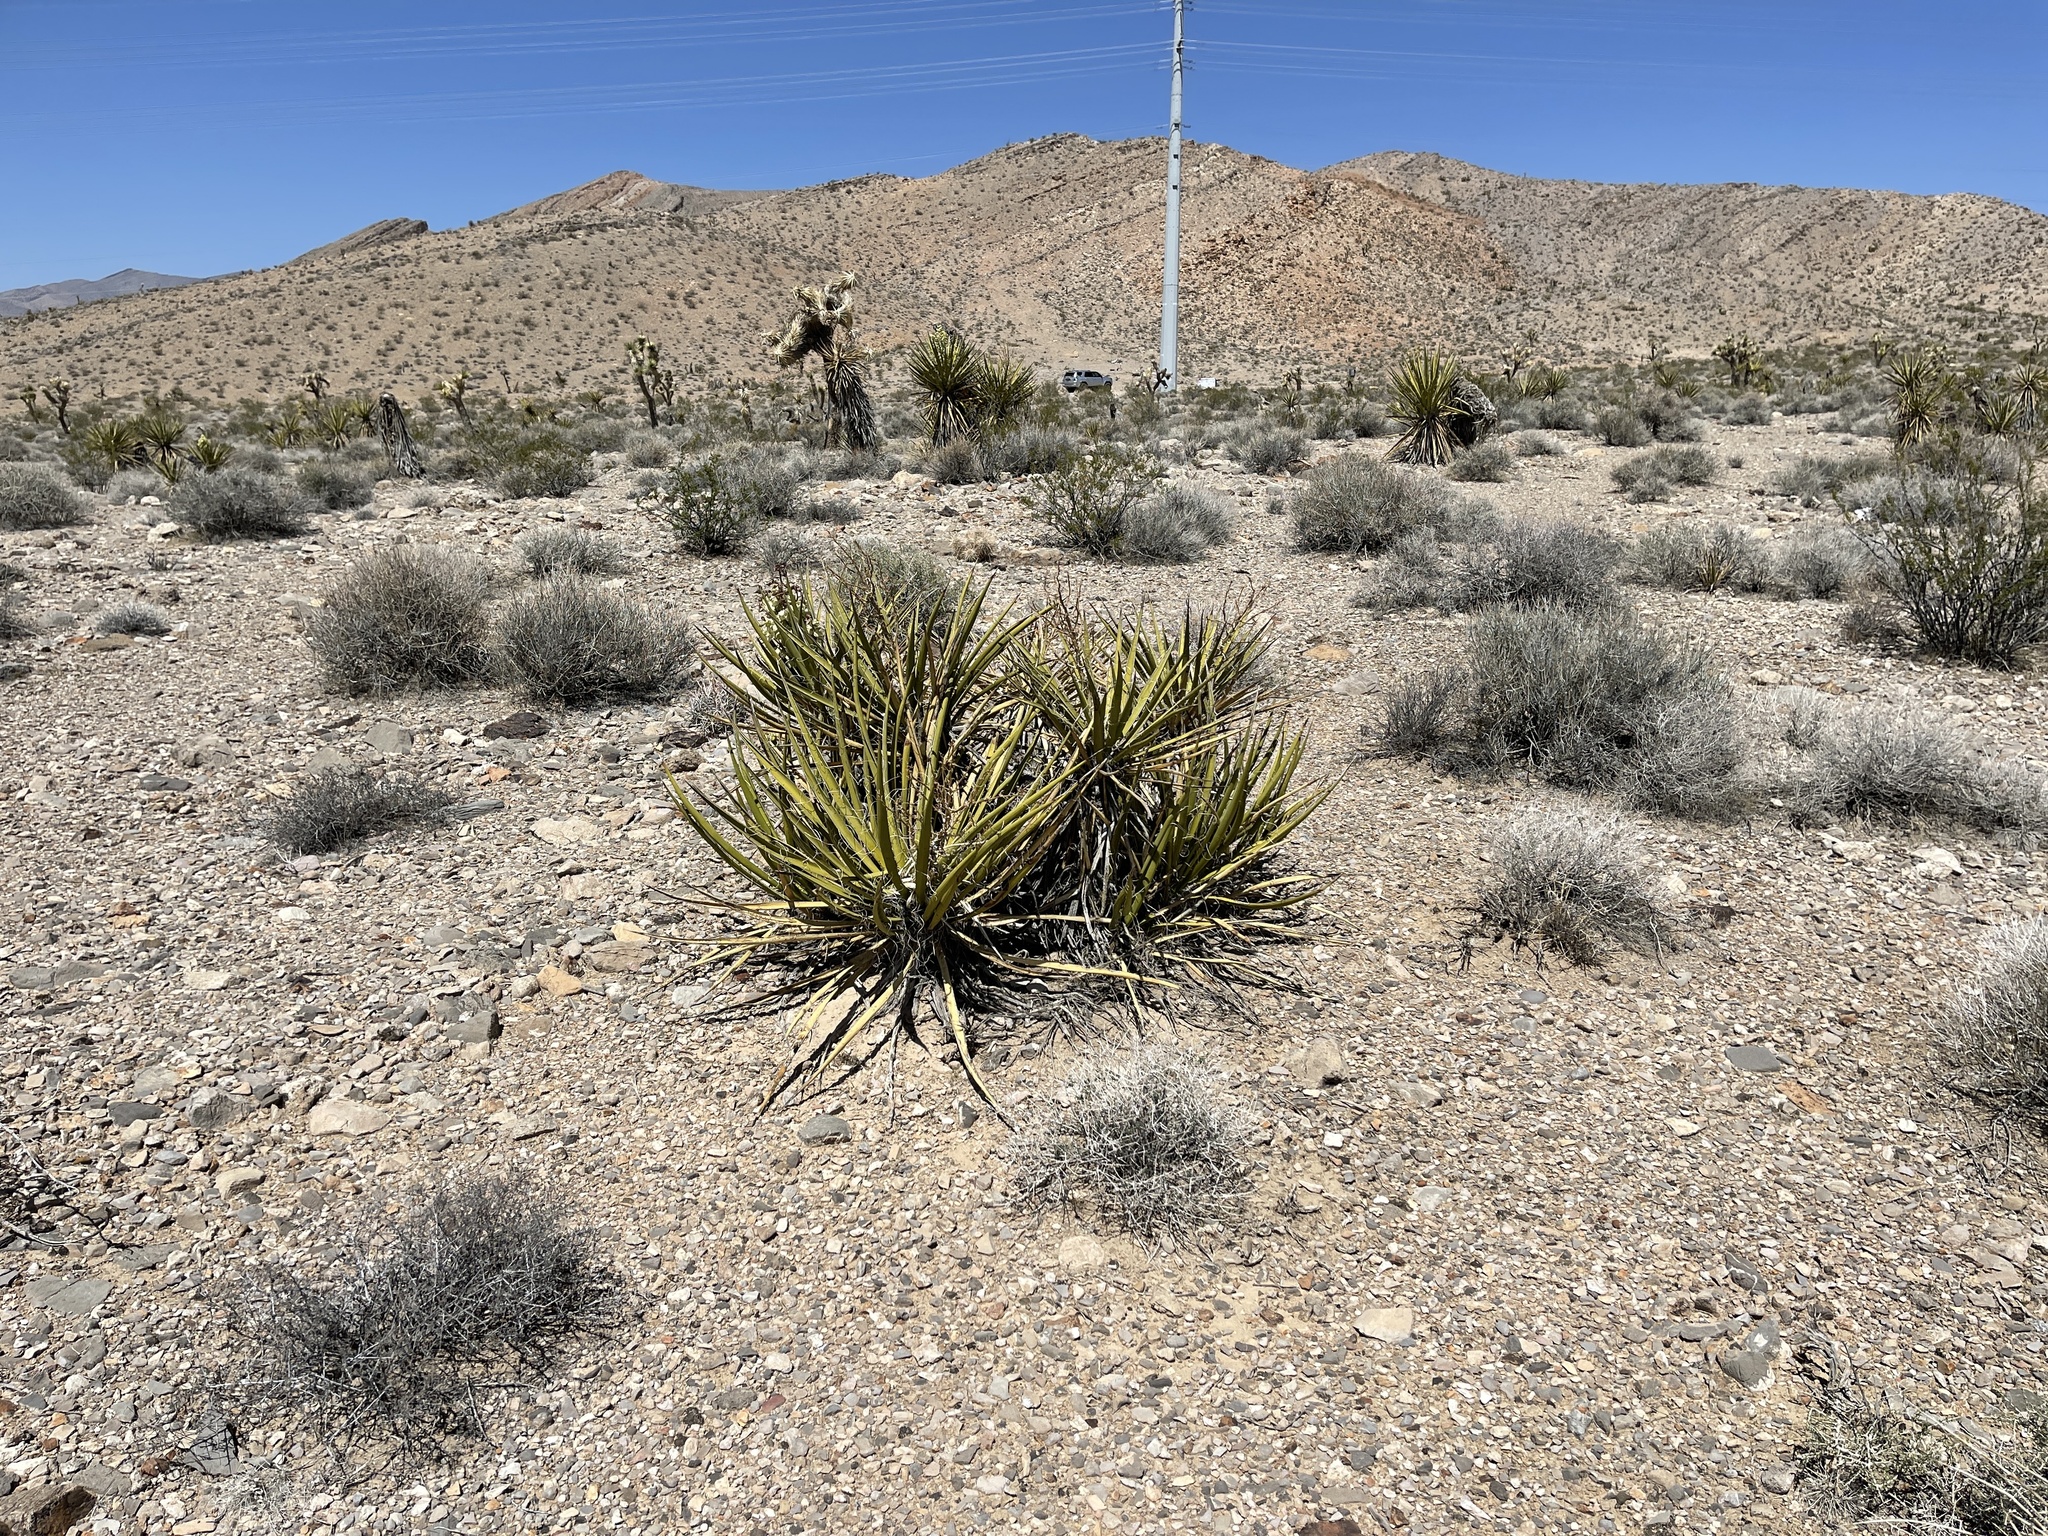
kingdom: Plantae
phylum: Tracheophyta
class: Liliopsida
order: Asparagales
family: Asparagaceae
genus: Yucca
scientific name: Yucca schidigera
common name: Mojave yucca
